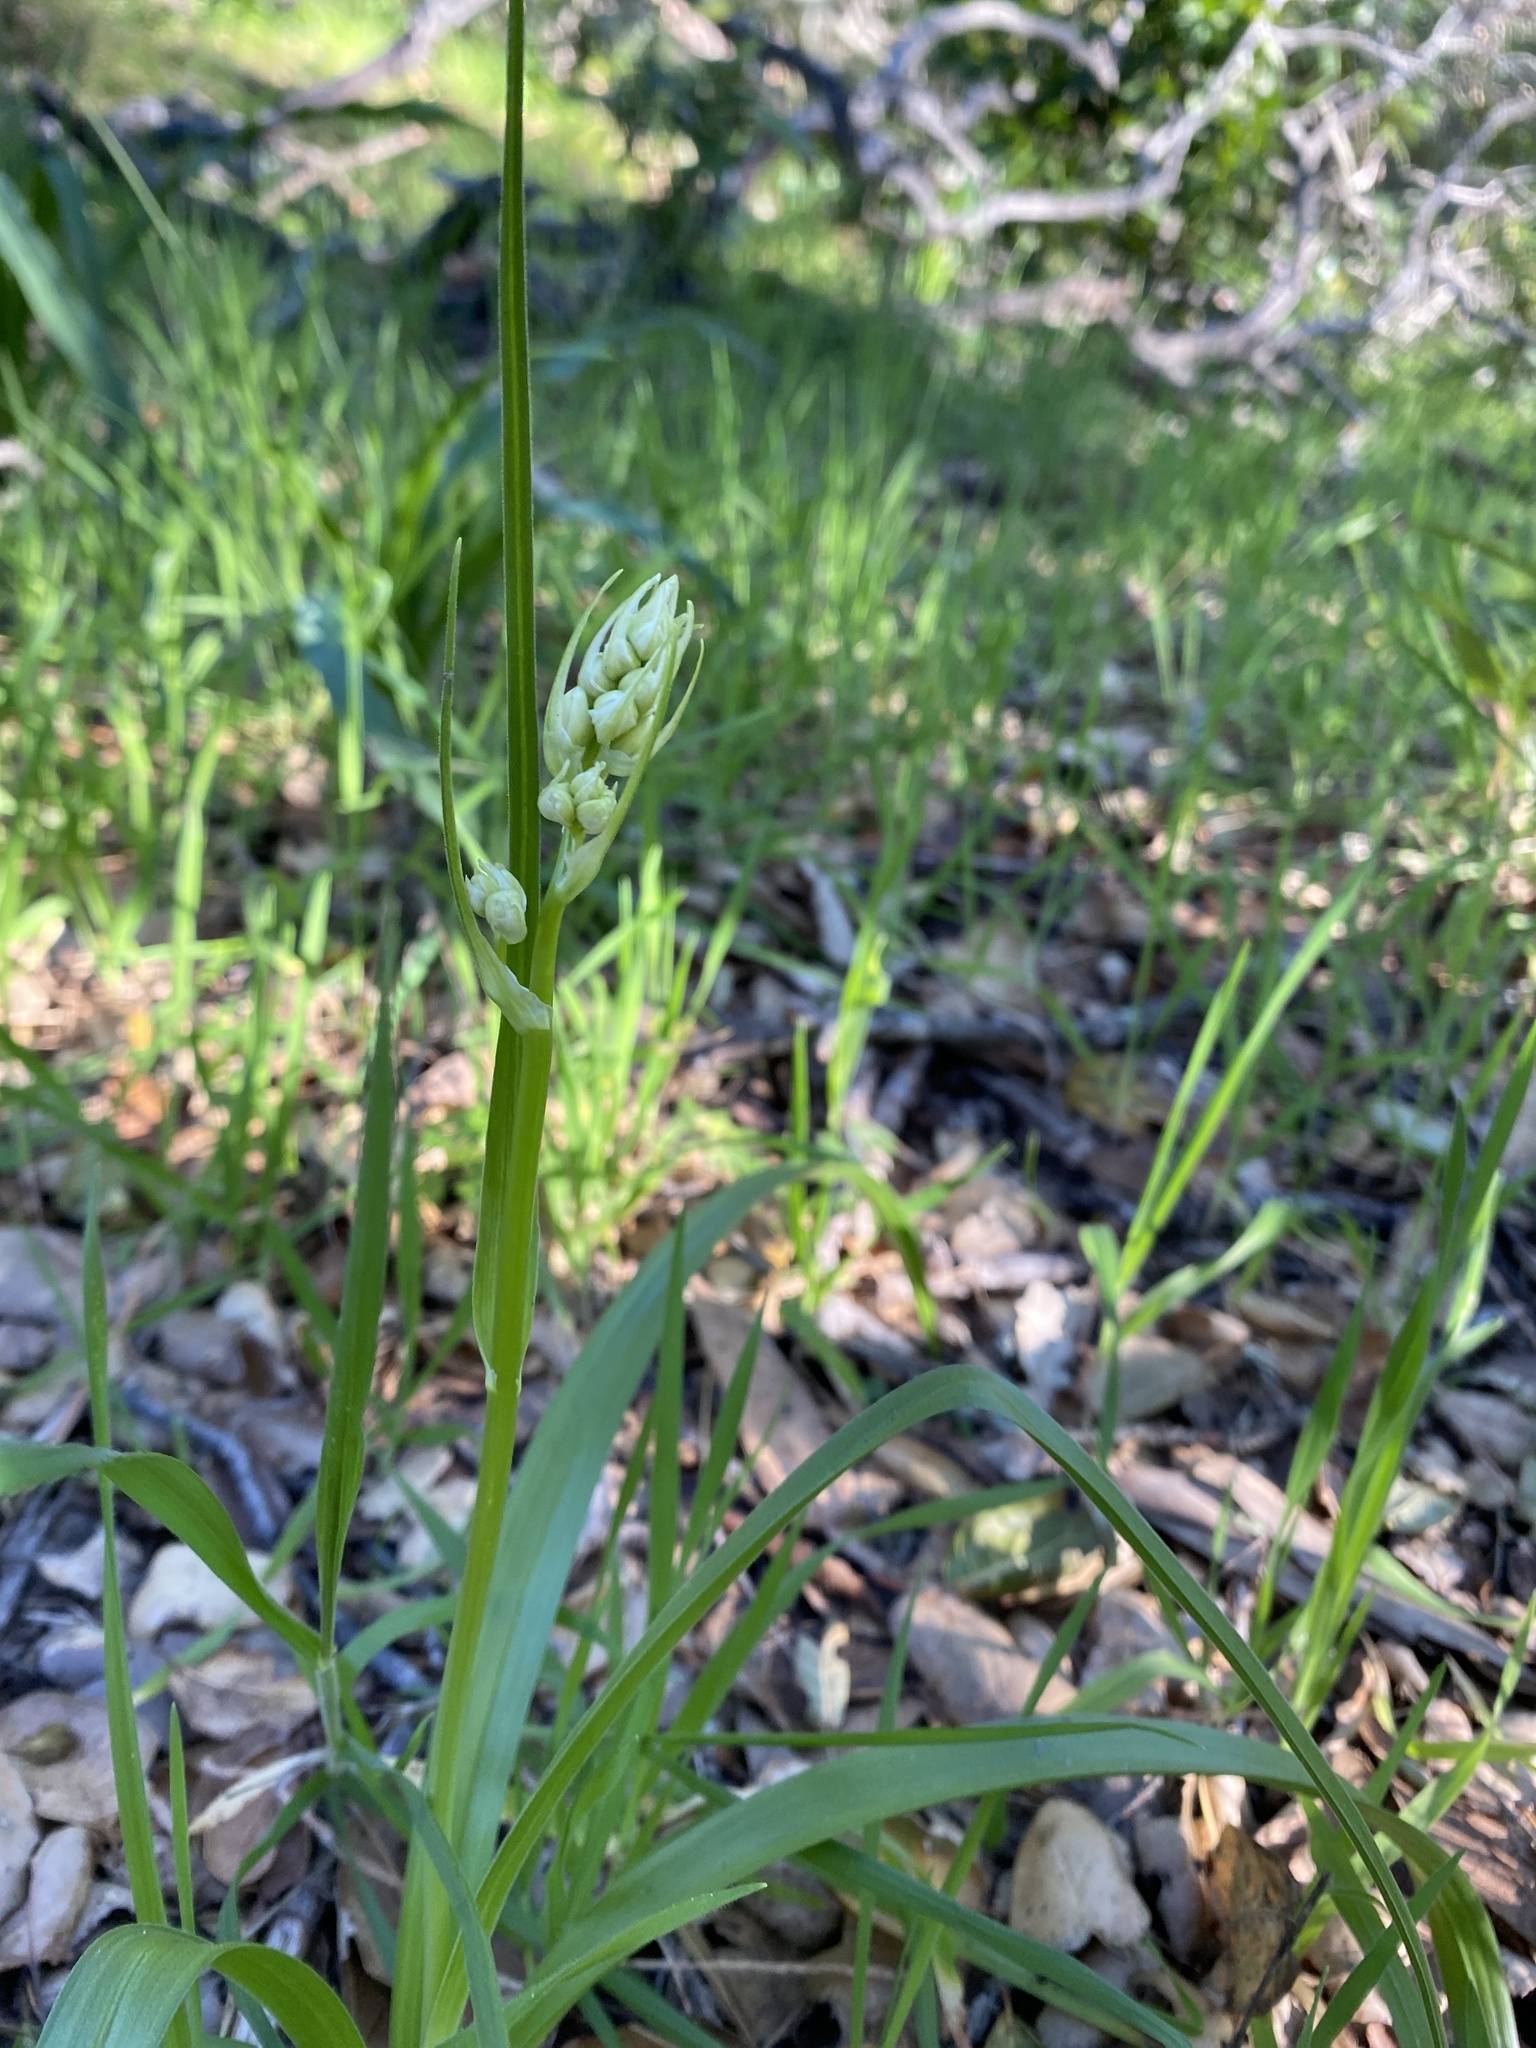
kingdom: Plantae
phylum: Tracheophyta
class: Liliopsida
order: Liliales
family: Melanthiaceae
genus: Toxicoscordion
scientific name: Toxicoscordion fremontii
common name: Fremont's death camas
